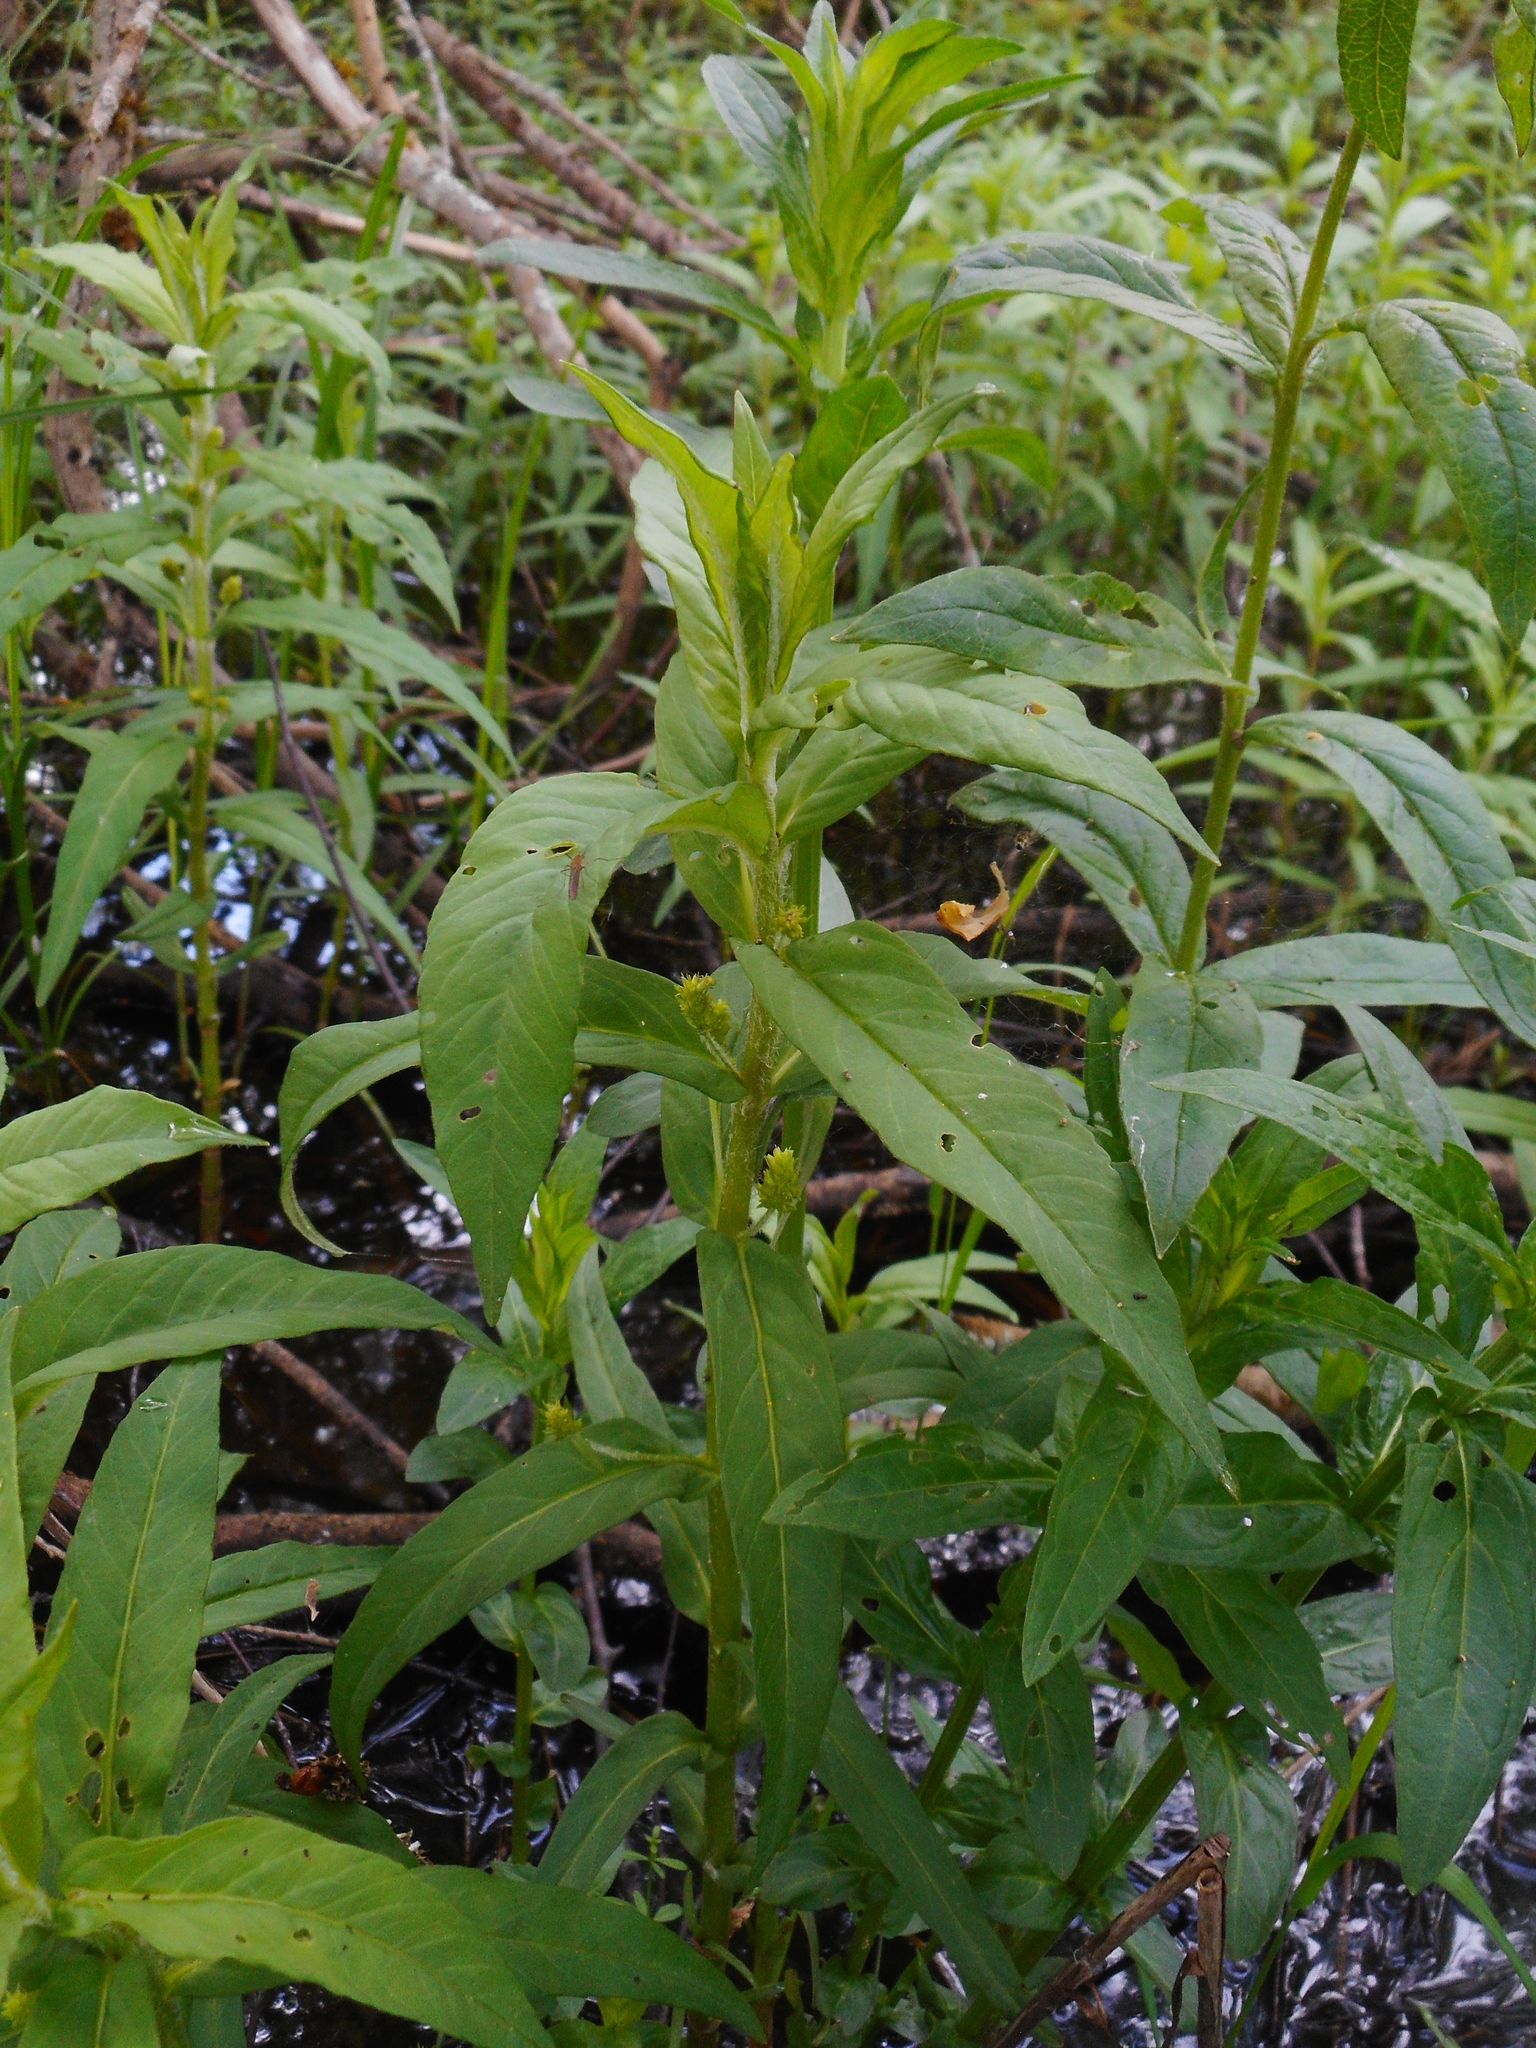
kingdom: Plantae
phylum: Tracheophyta
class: Magnoliopsida
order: Ericales
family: Primulaceae
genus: Lysimachia
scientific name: Lysimachia thyrsiflora
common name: Tufted loosestrife
